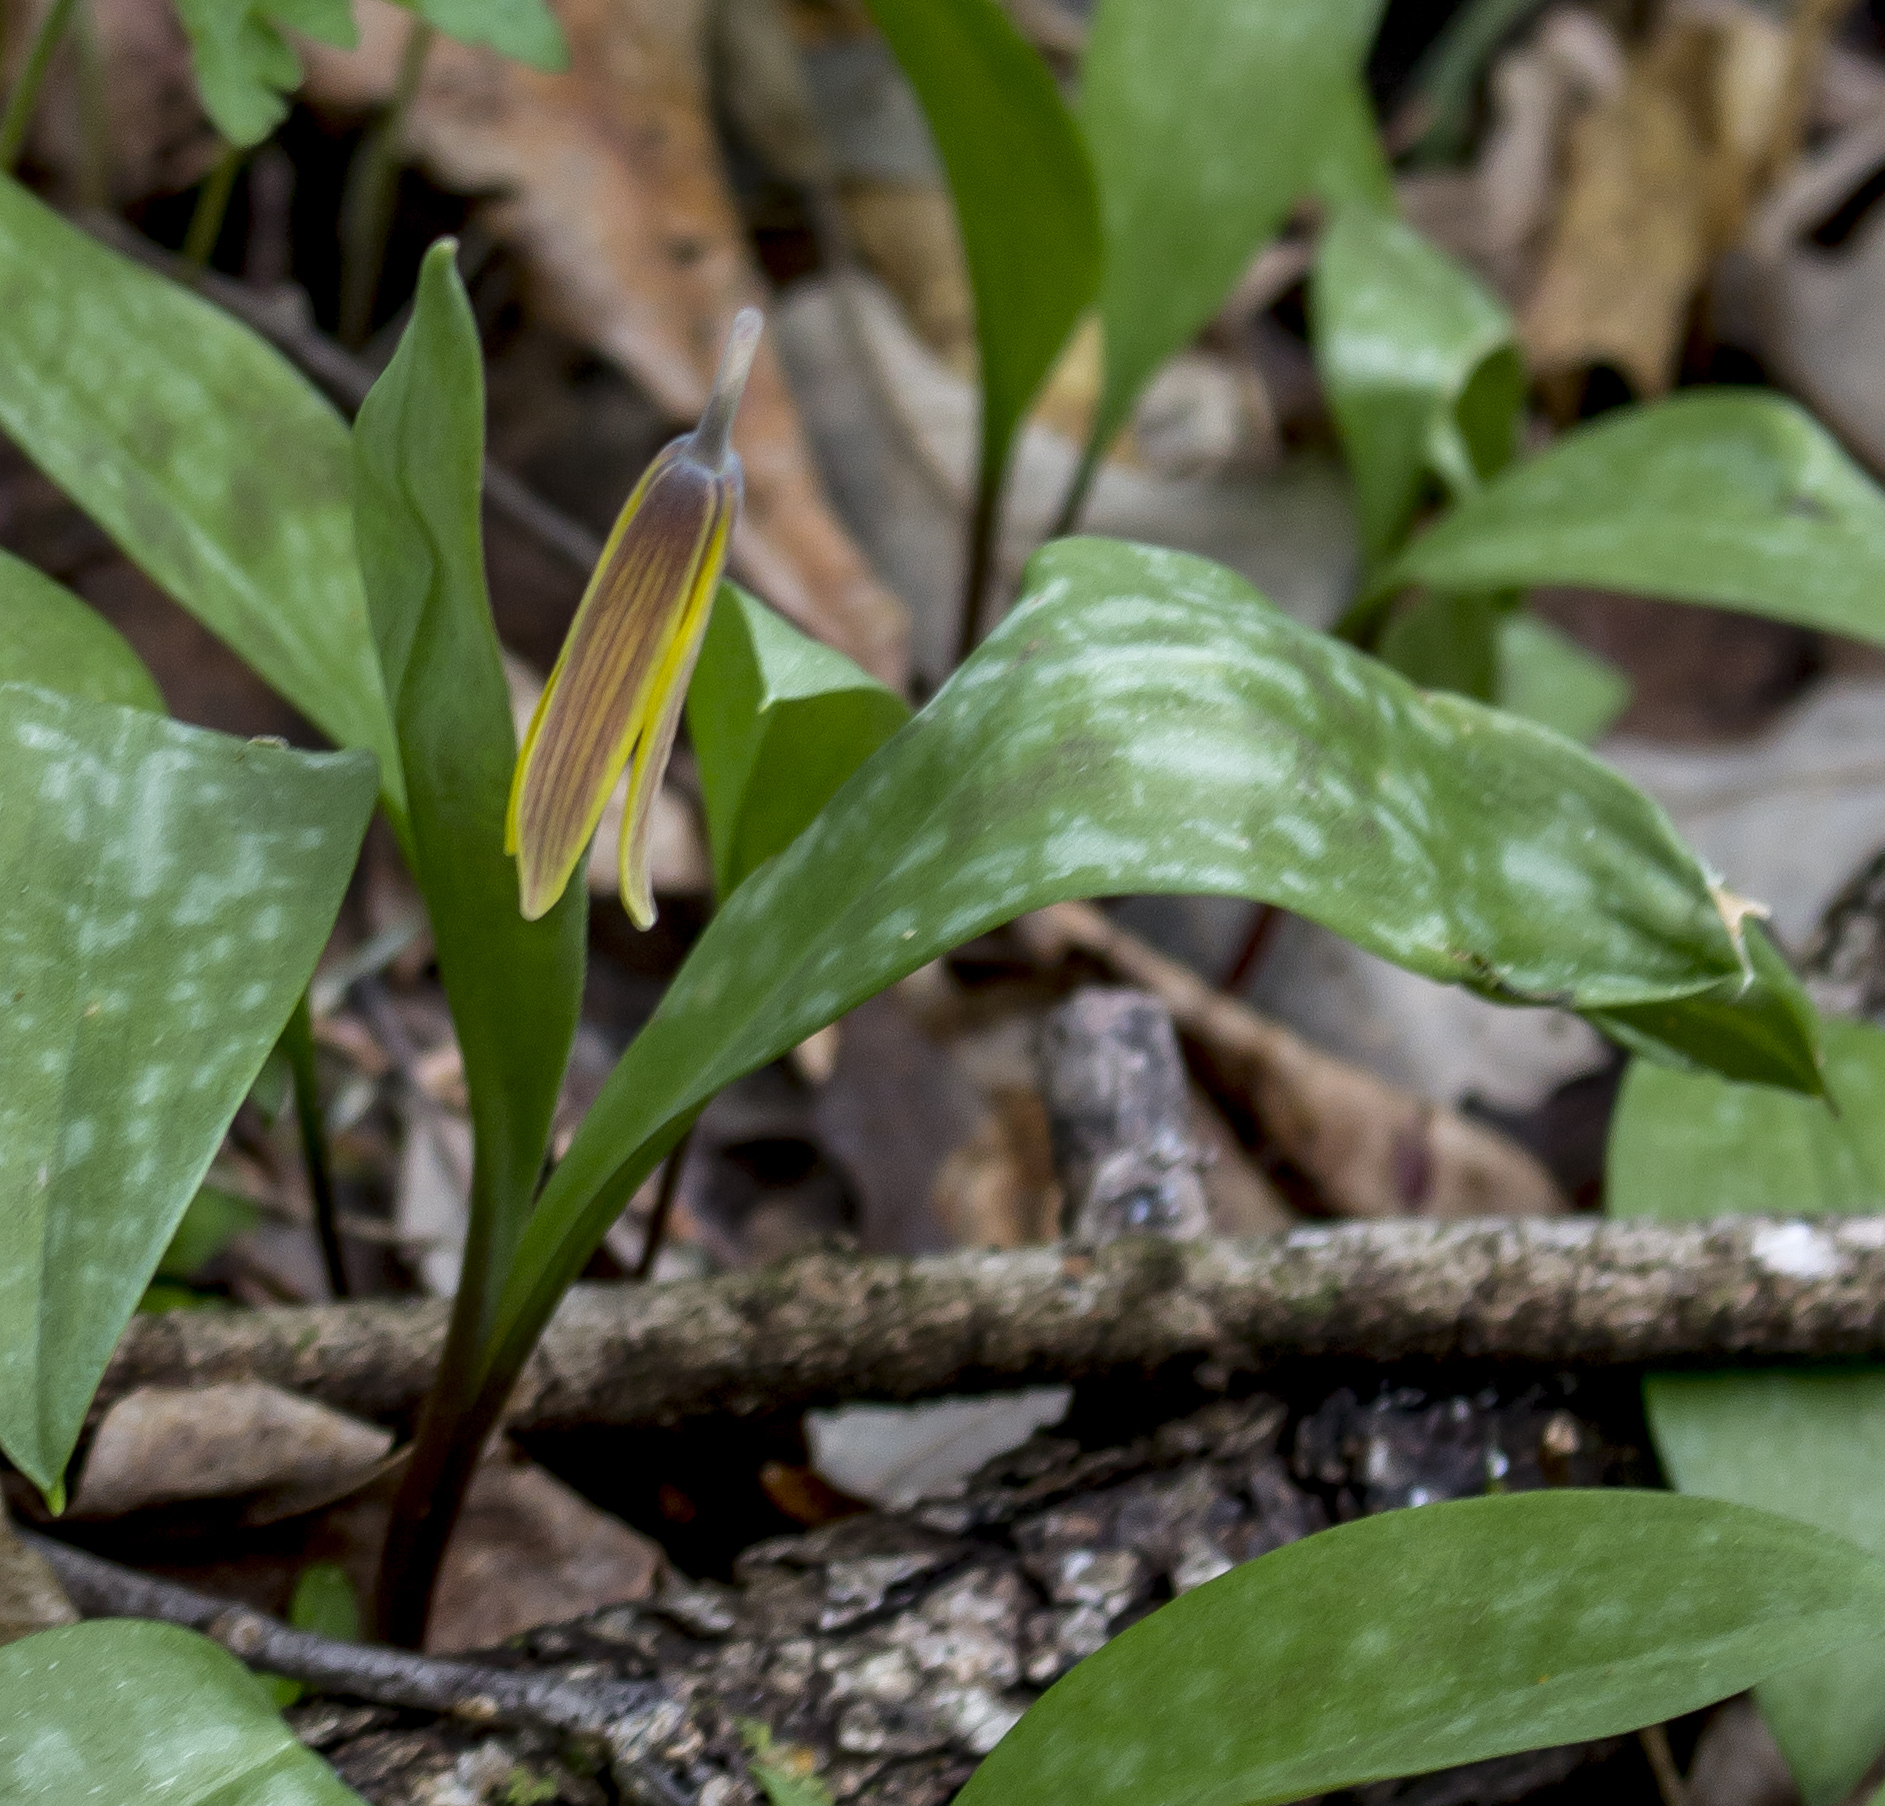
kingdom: Plantae
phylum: Tracheophyta
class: Liliopsida
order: Liliales
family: Liliaceae
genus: Erythronium
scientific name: Erythronium americanum
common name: Yellow adder's-tongue
